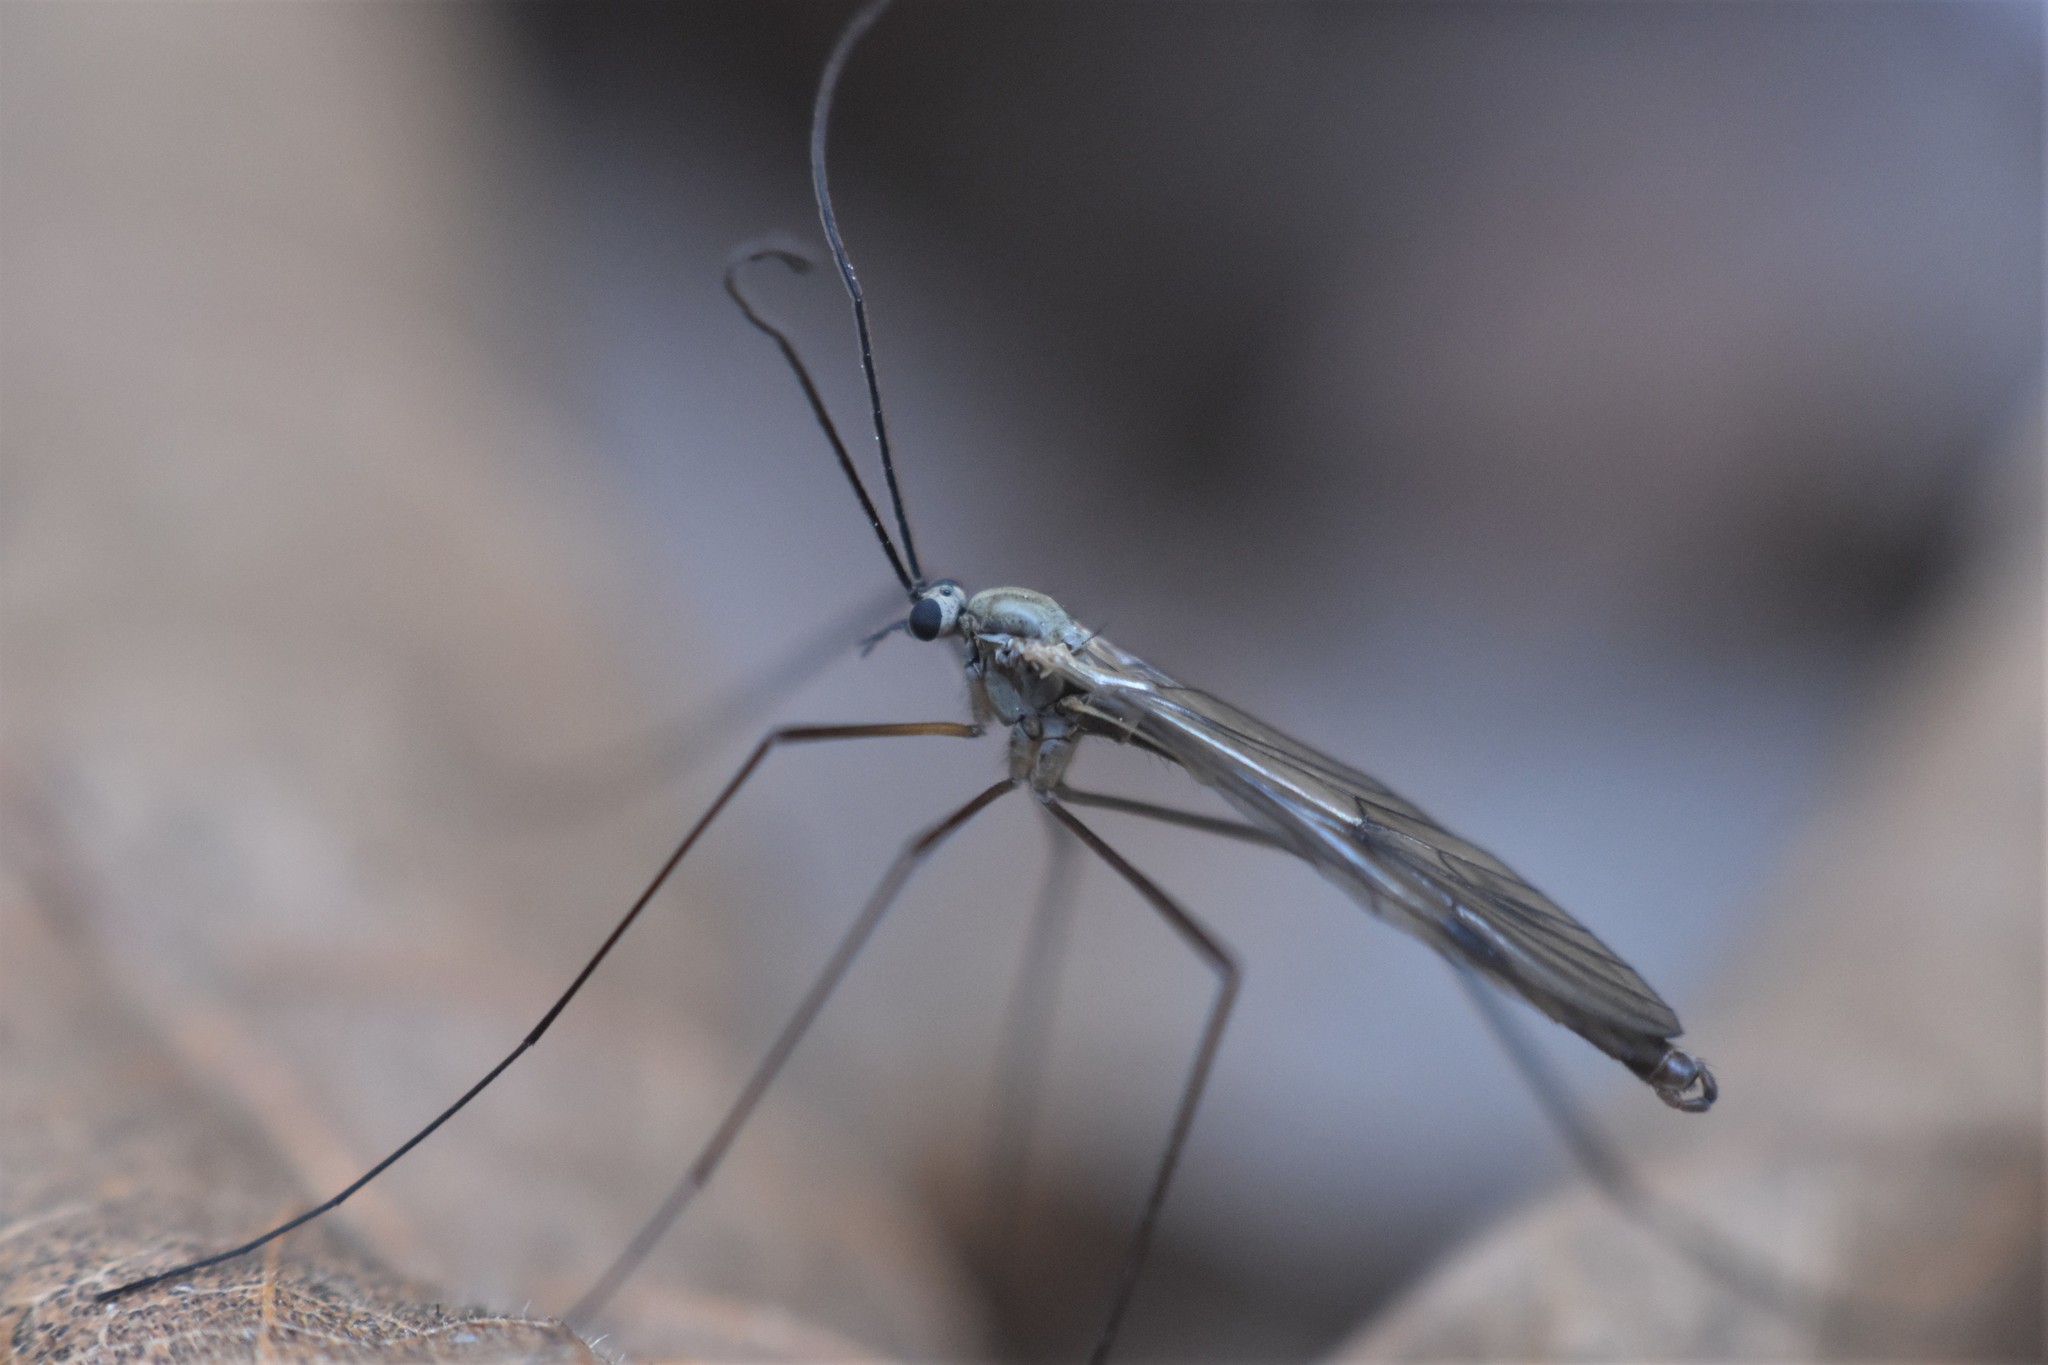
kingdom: Animalia
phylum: Arthropoda
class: Insecta
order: Diptera
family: Pachyneuridae
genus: Cramptonomyia
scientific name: Cramptonomyia spenceri
